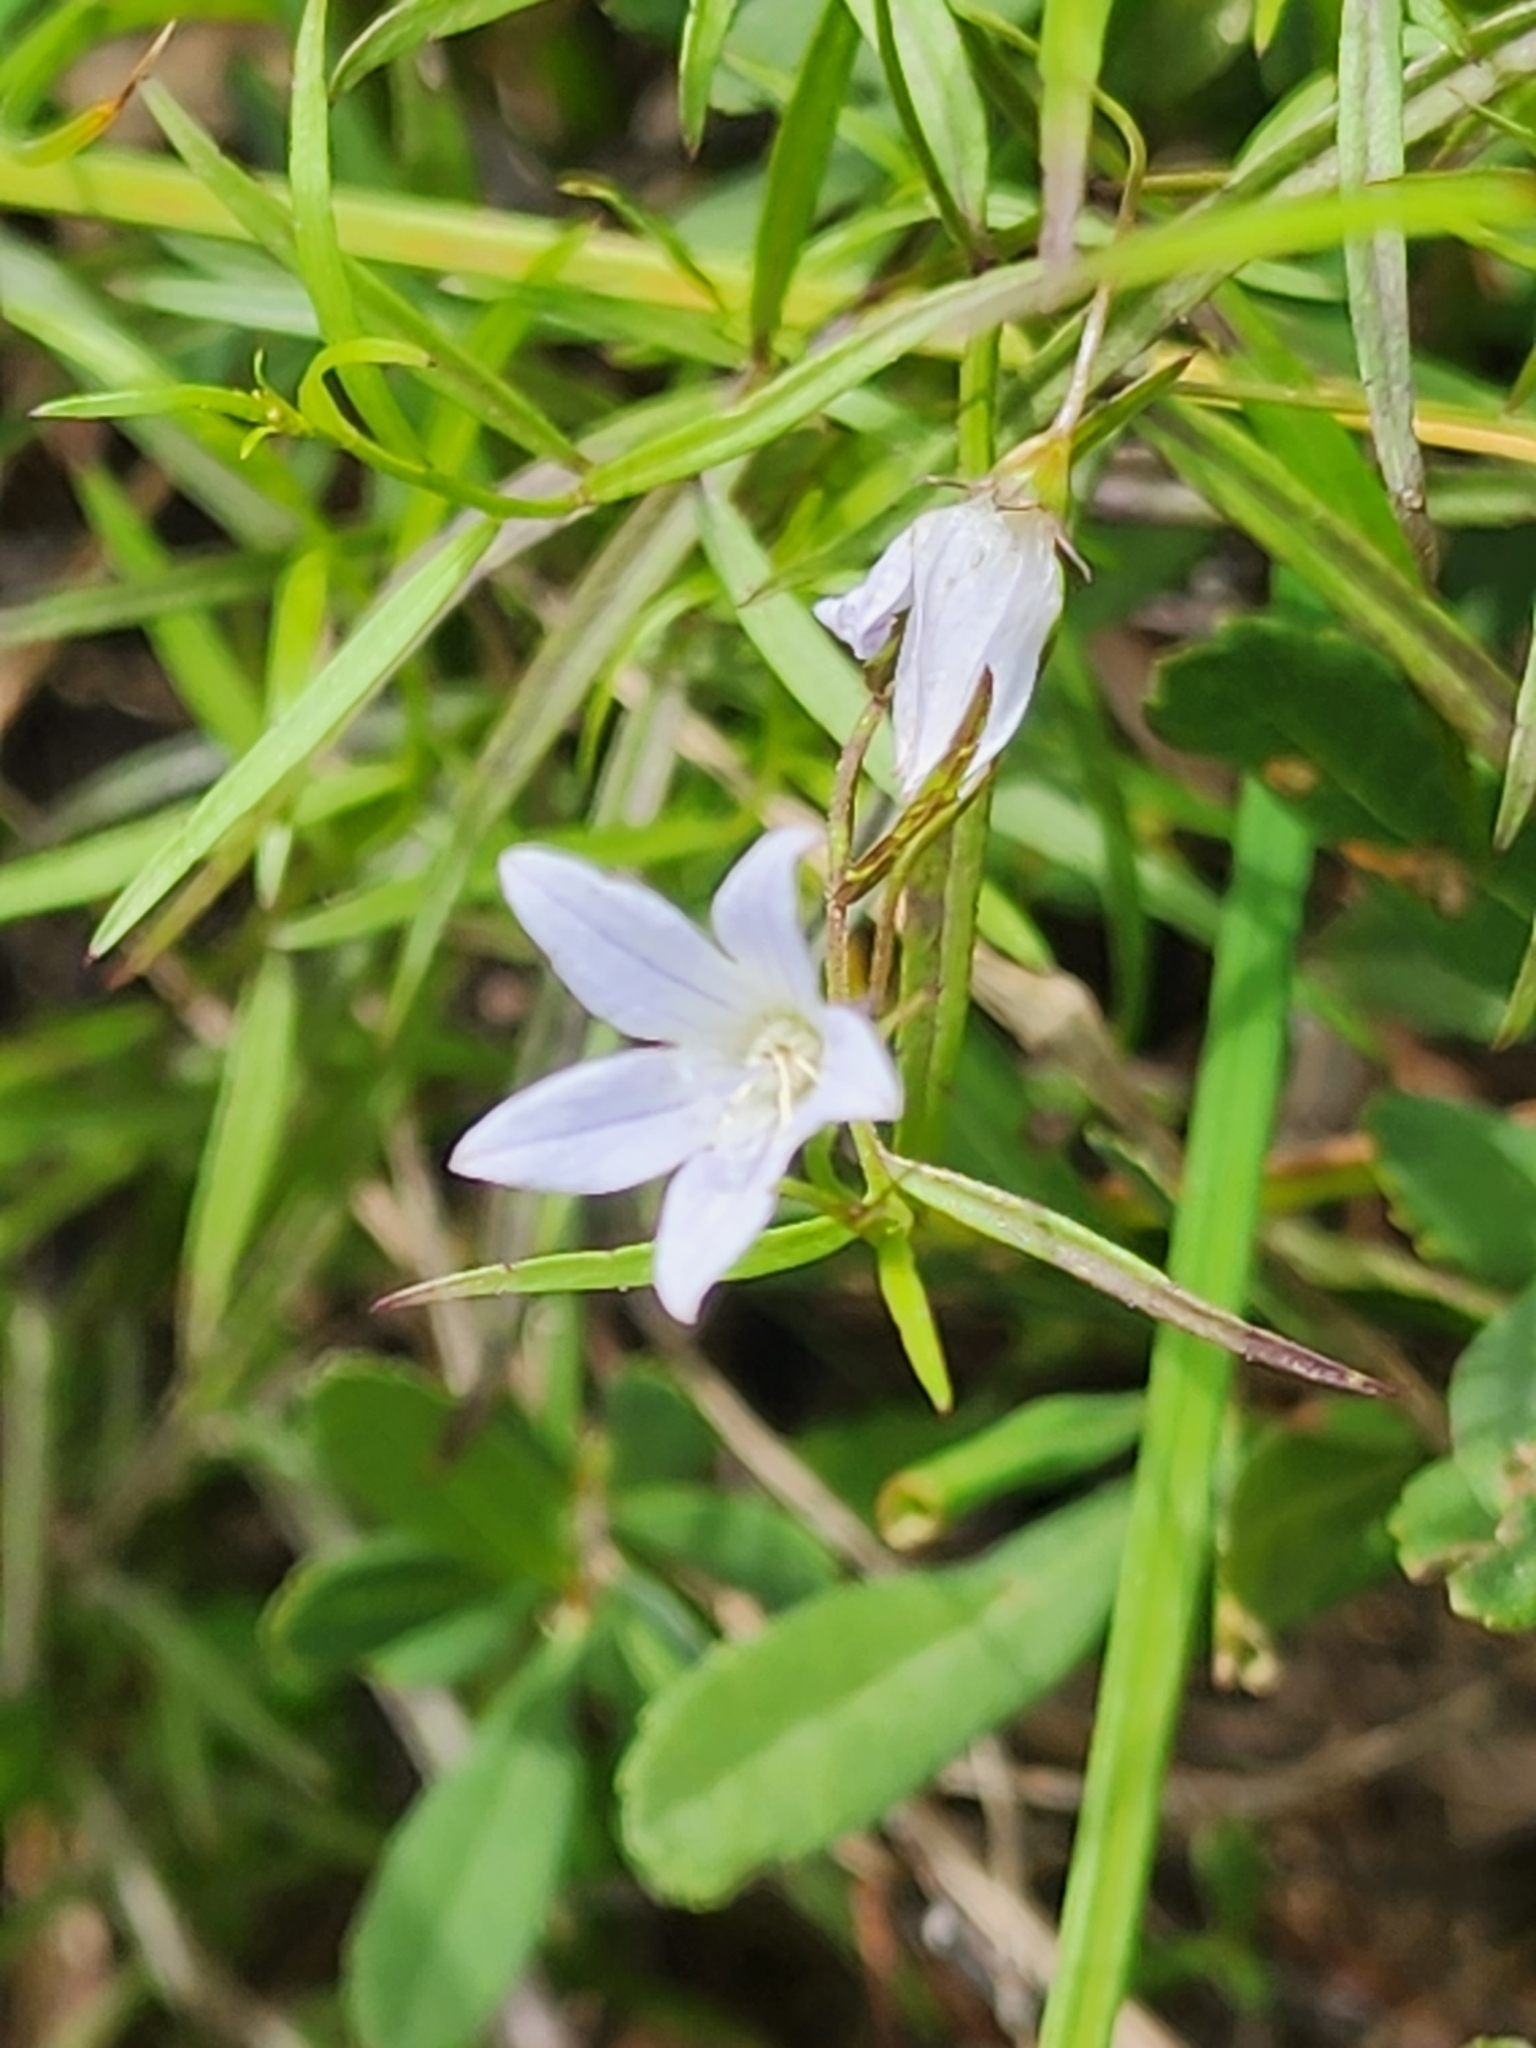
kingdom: Plantae
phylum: Tracheophyta
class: Magnoliopsida
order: Asterales
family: Campanulaceae
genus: Palustricodon
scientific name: Palustricodon aparinoides
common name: Bedstraw bellflower
